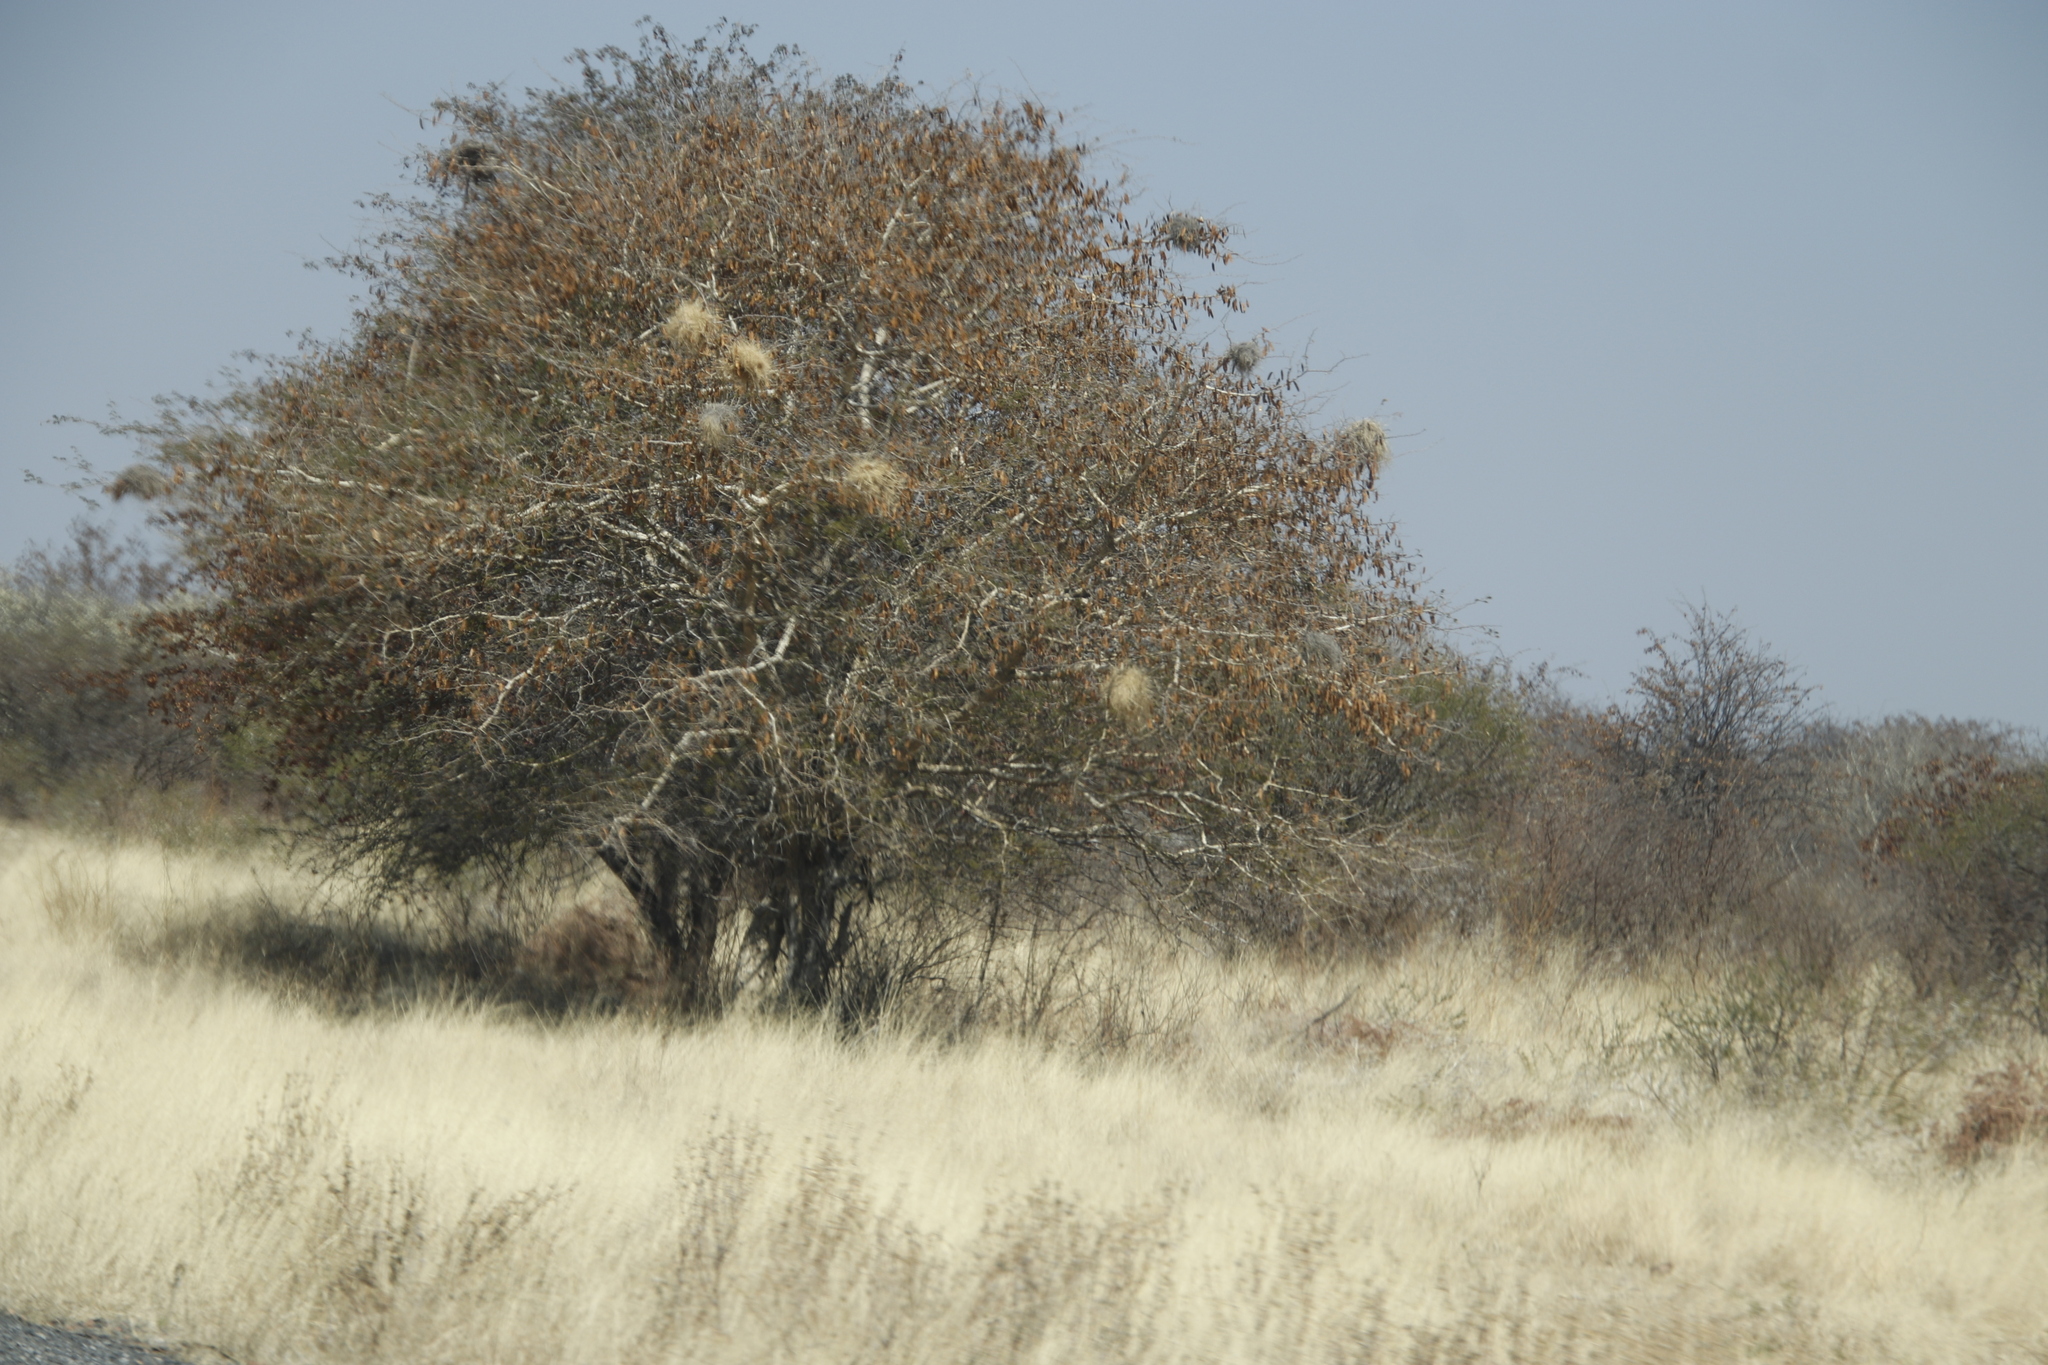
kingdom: Animalia
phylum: Chordata
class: Aves
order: Passeriformes
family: Passeridae
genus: Plocepasser
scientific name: Plocepasser mahali
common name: White-browed sparrow-weaver
